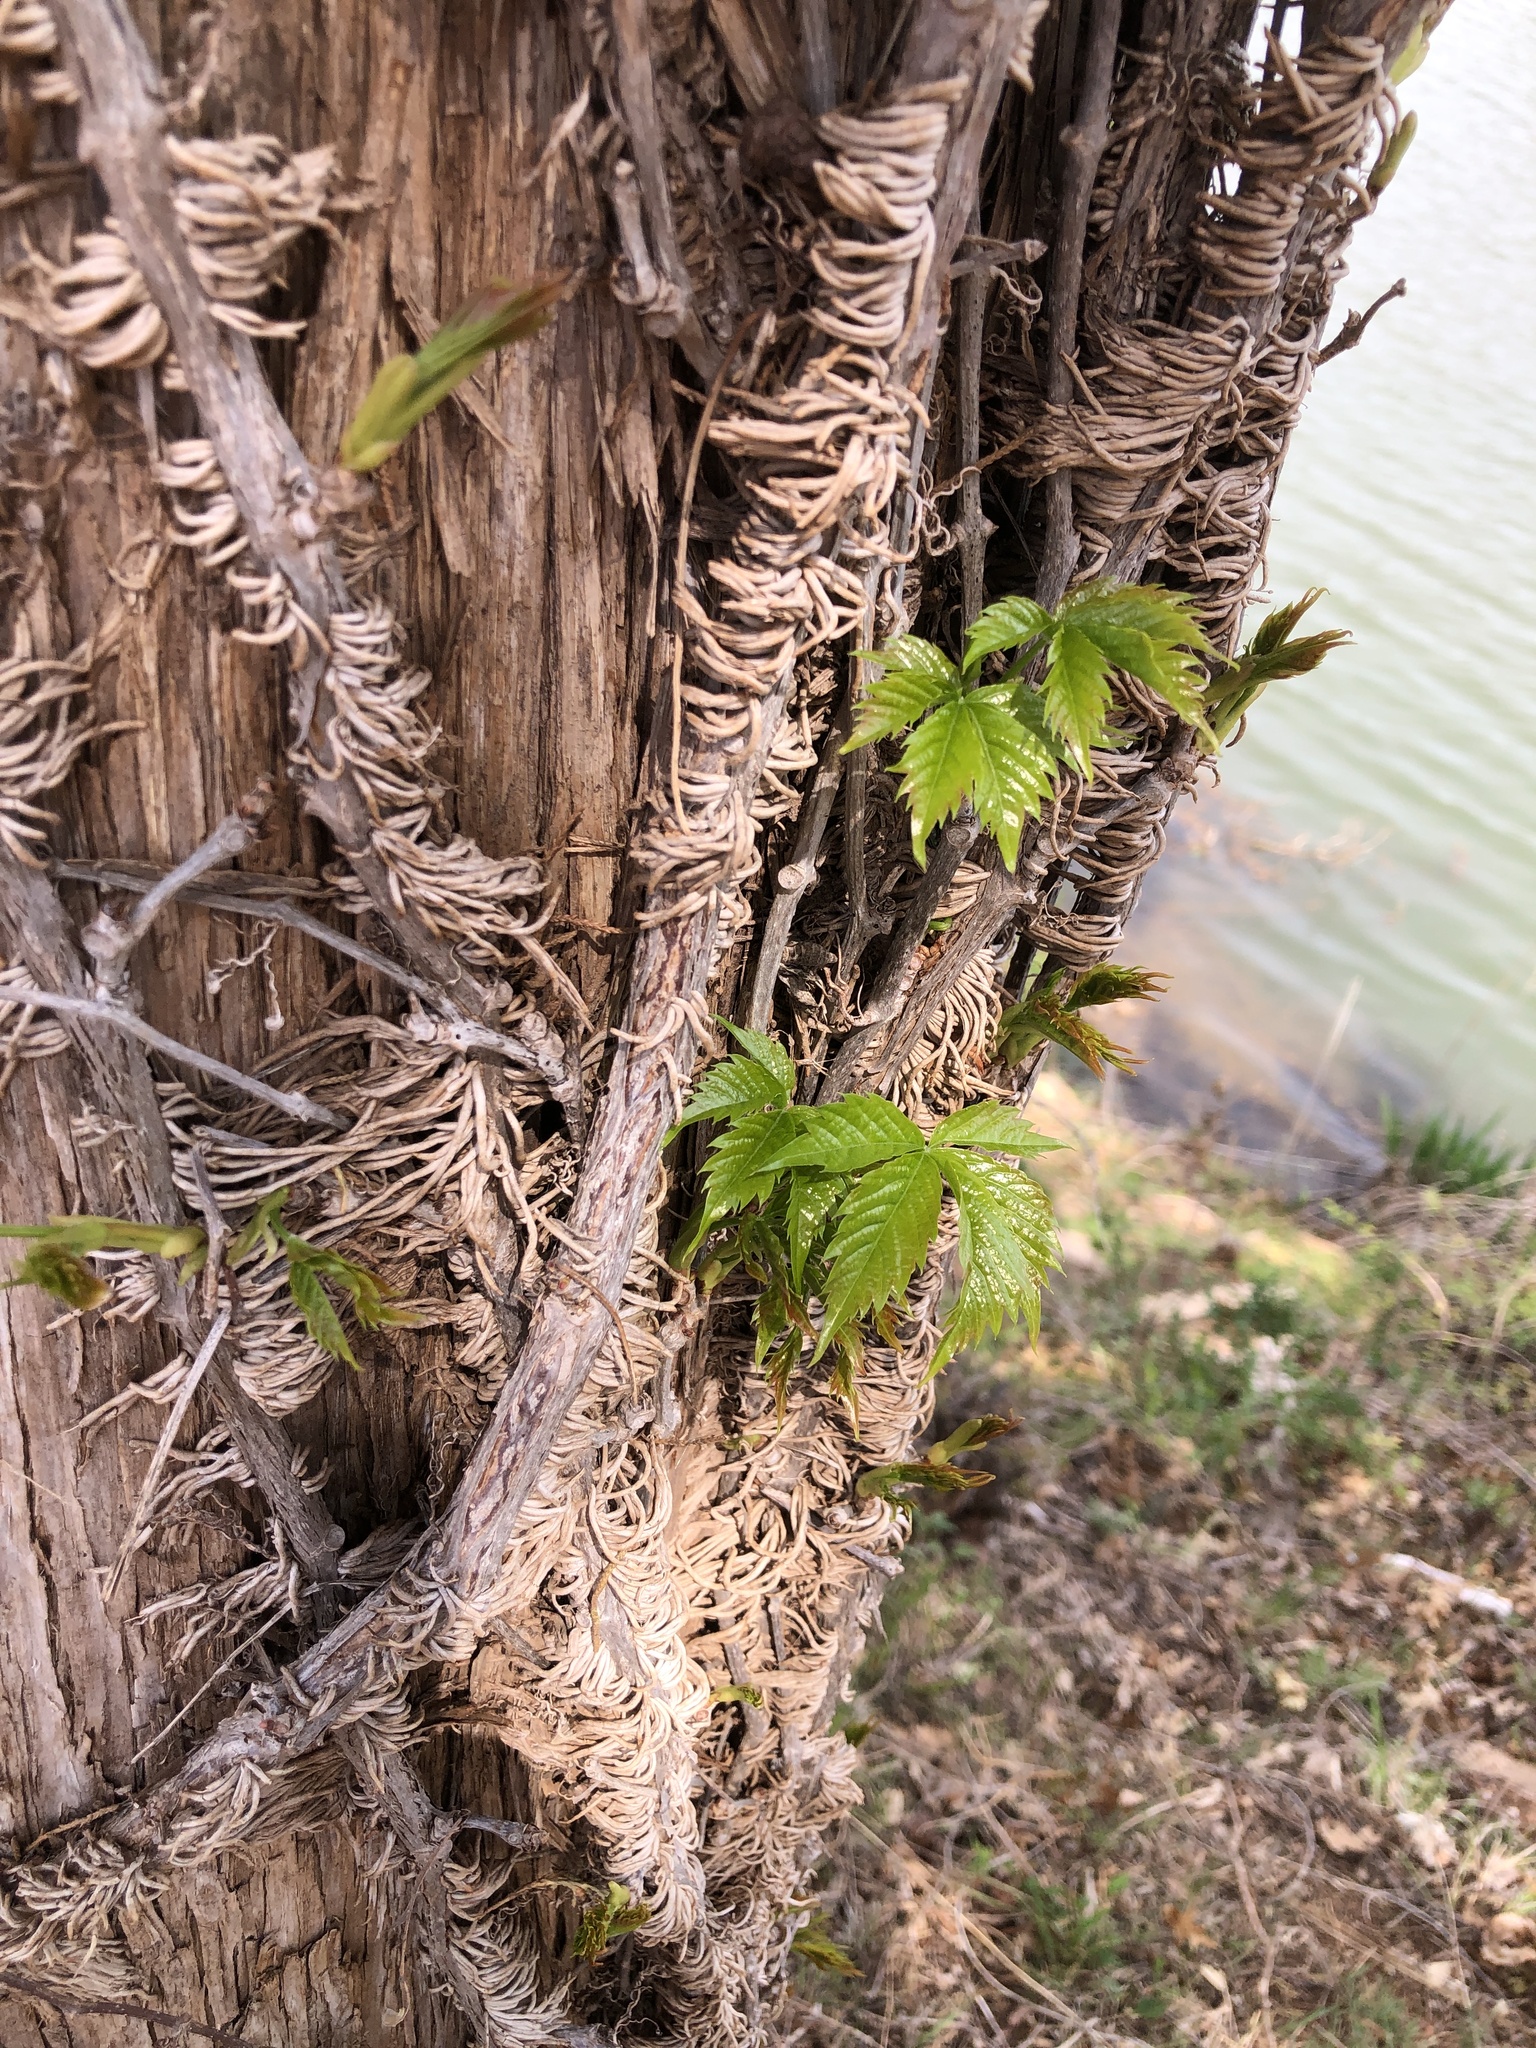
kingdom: Plantae
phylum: Tracheophyta
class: Magnoliopsida
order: Vitales
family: Vitaceae
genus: Parthenocissus
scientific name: Parthenocissus quinquefolia
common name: Virginia-creeper
